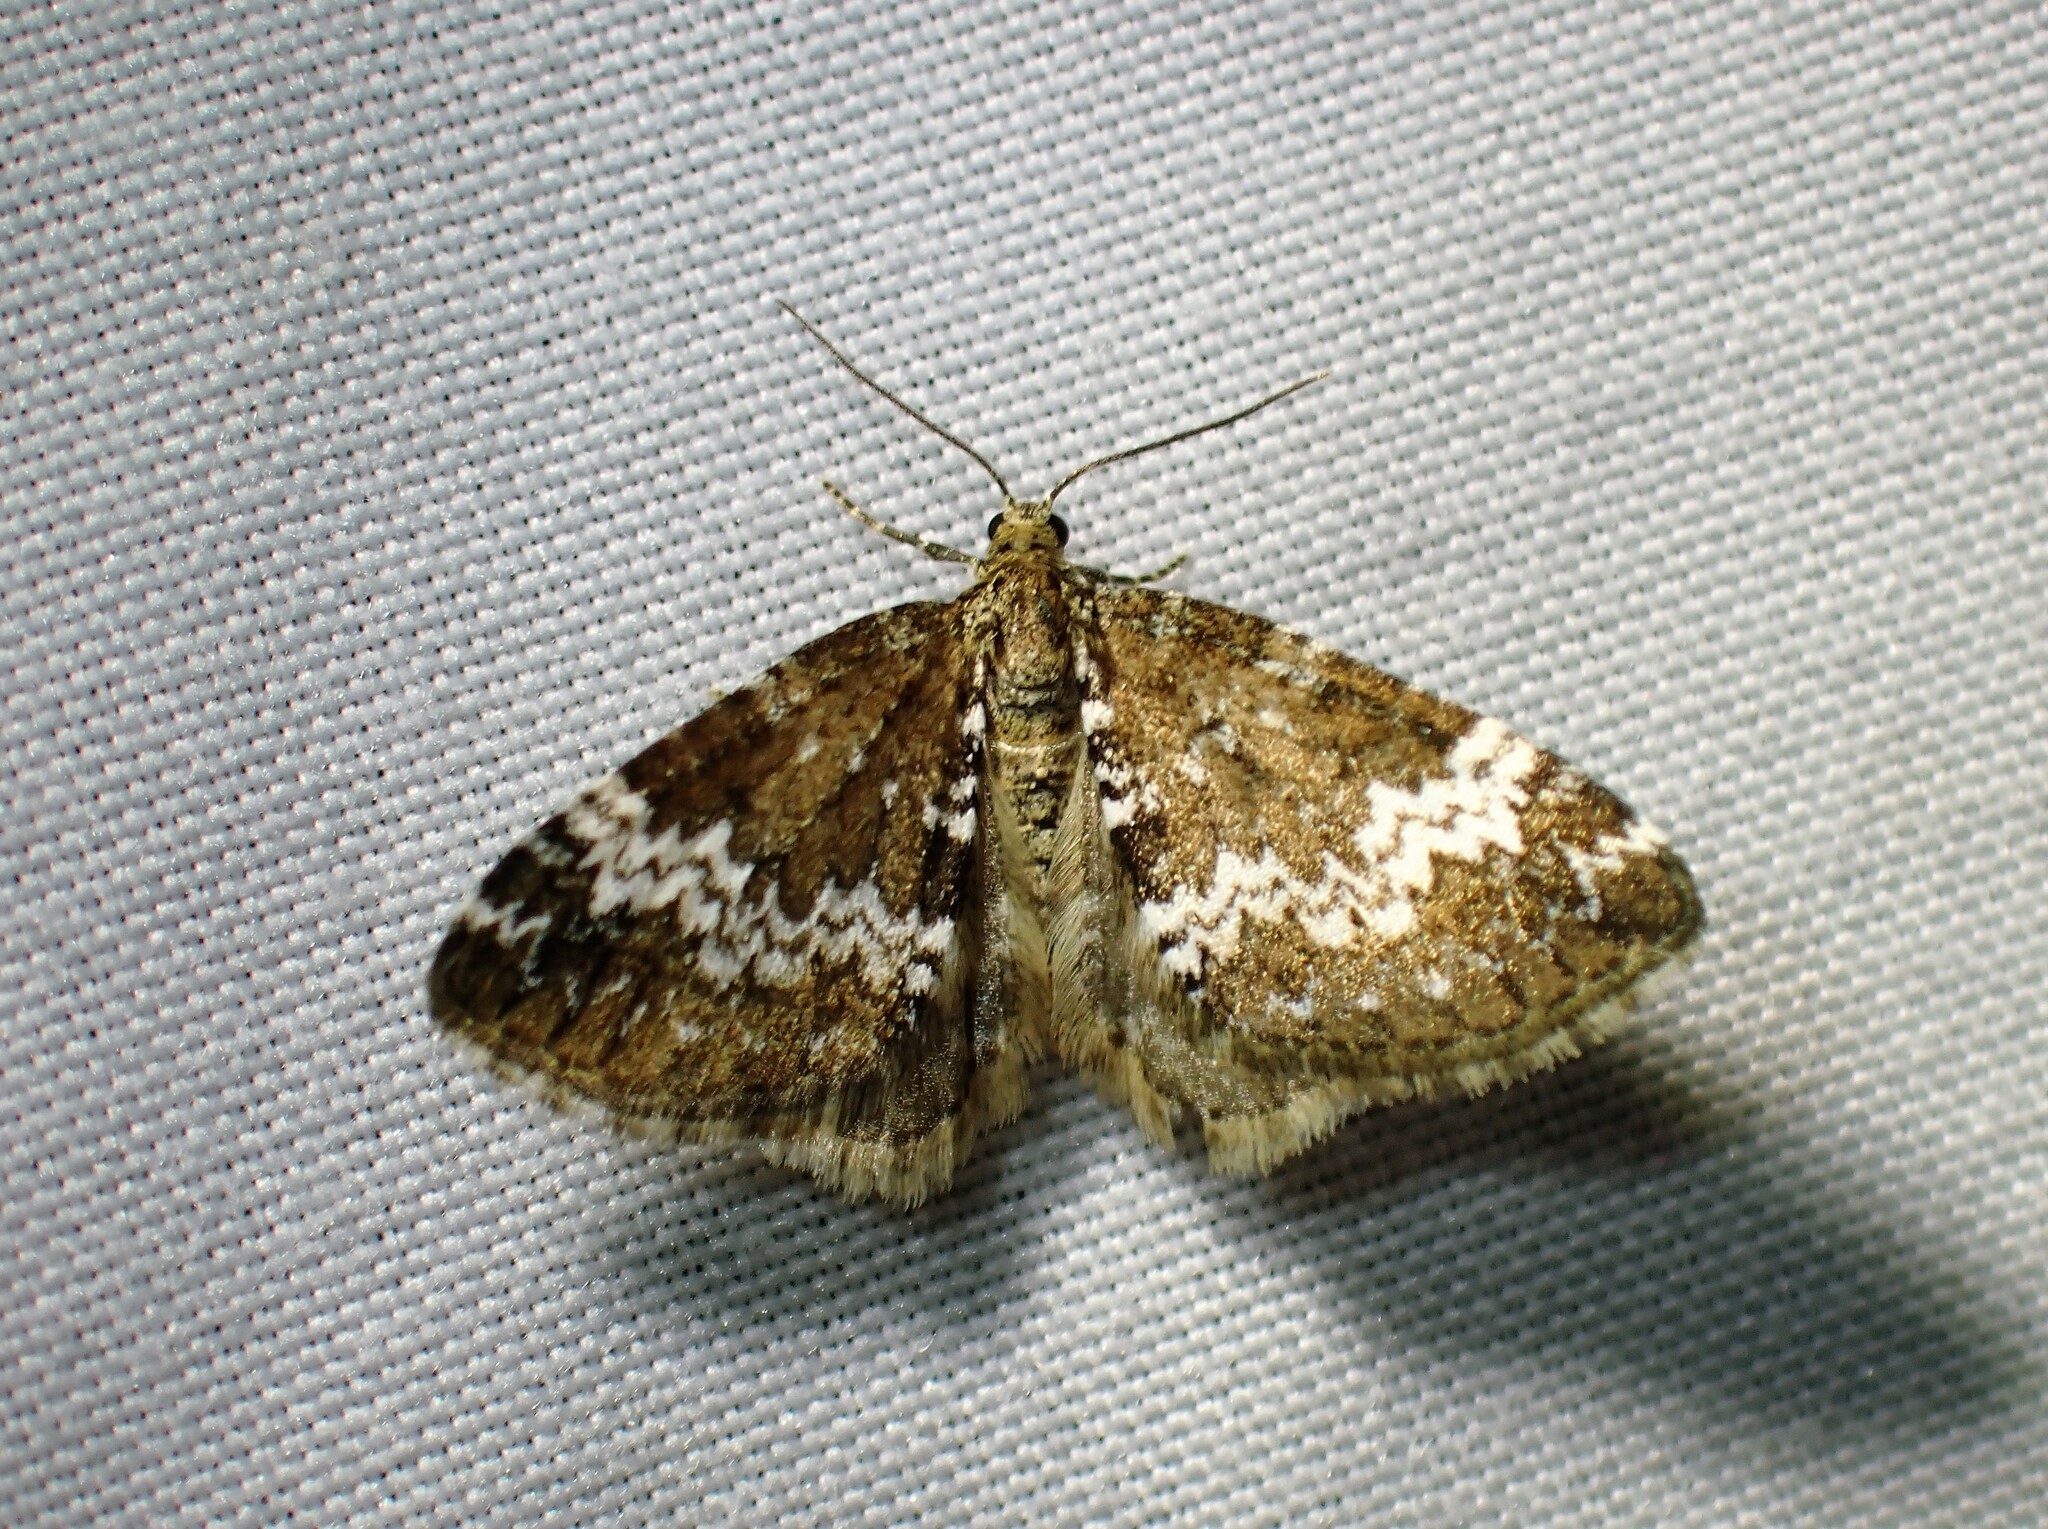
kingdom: Animalia
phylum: Arthropoda
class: Insecta
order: Lepidoptera
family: Geometridae
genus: Perizoma
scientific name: Perizoma alchemillata
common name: Small rivulet
